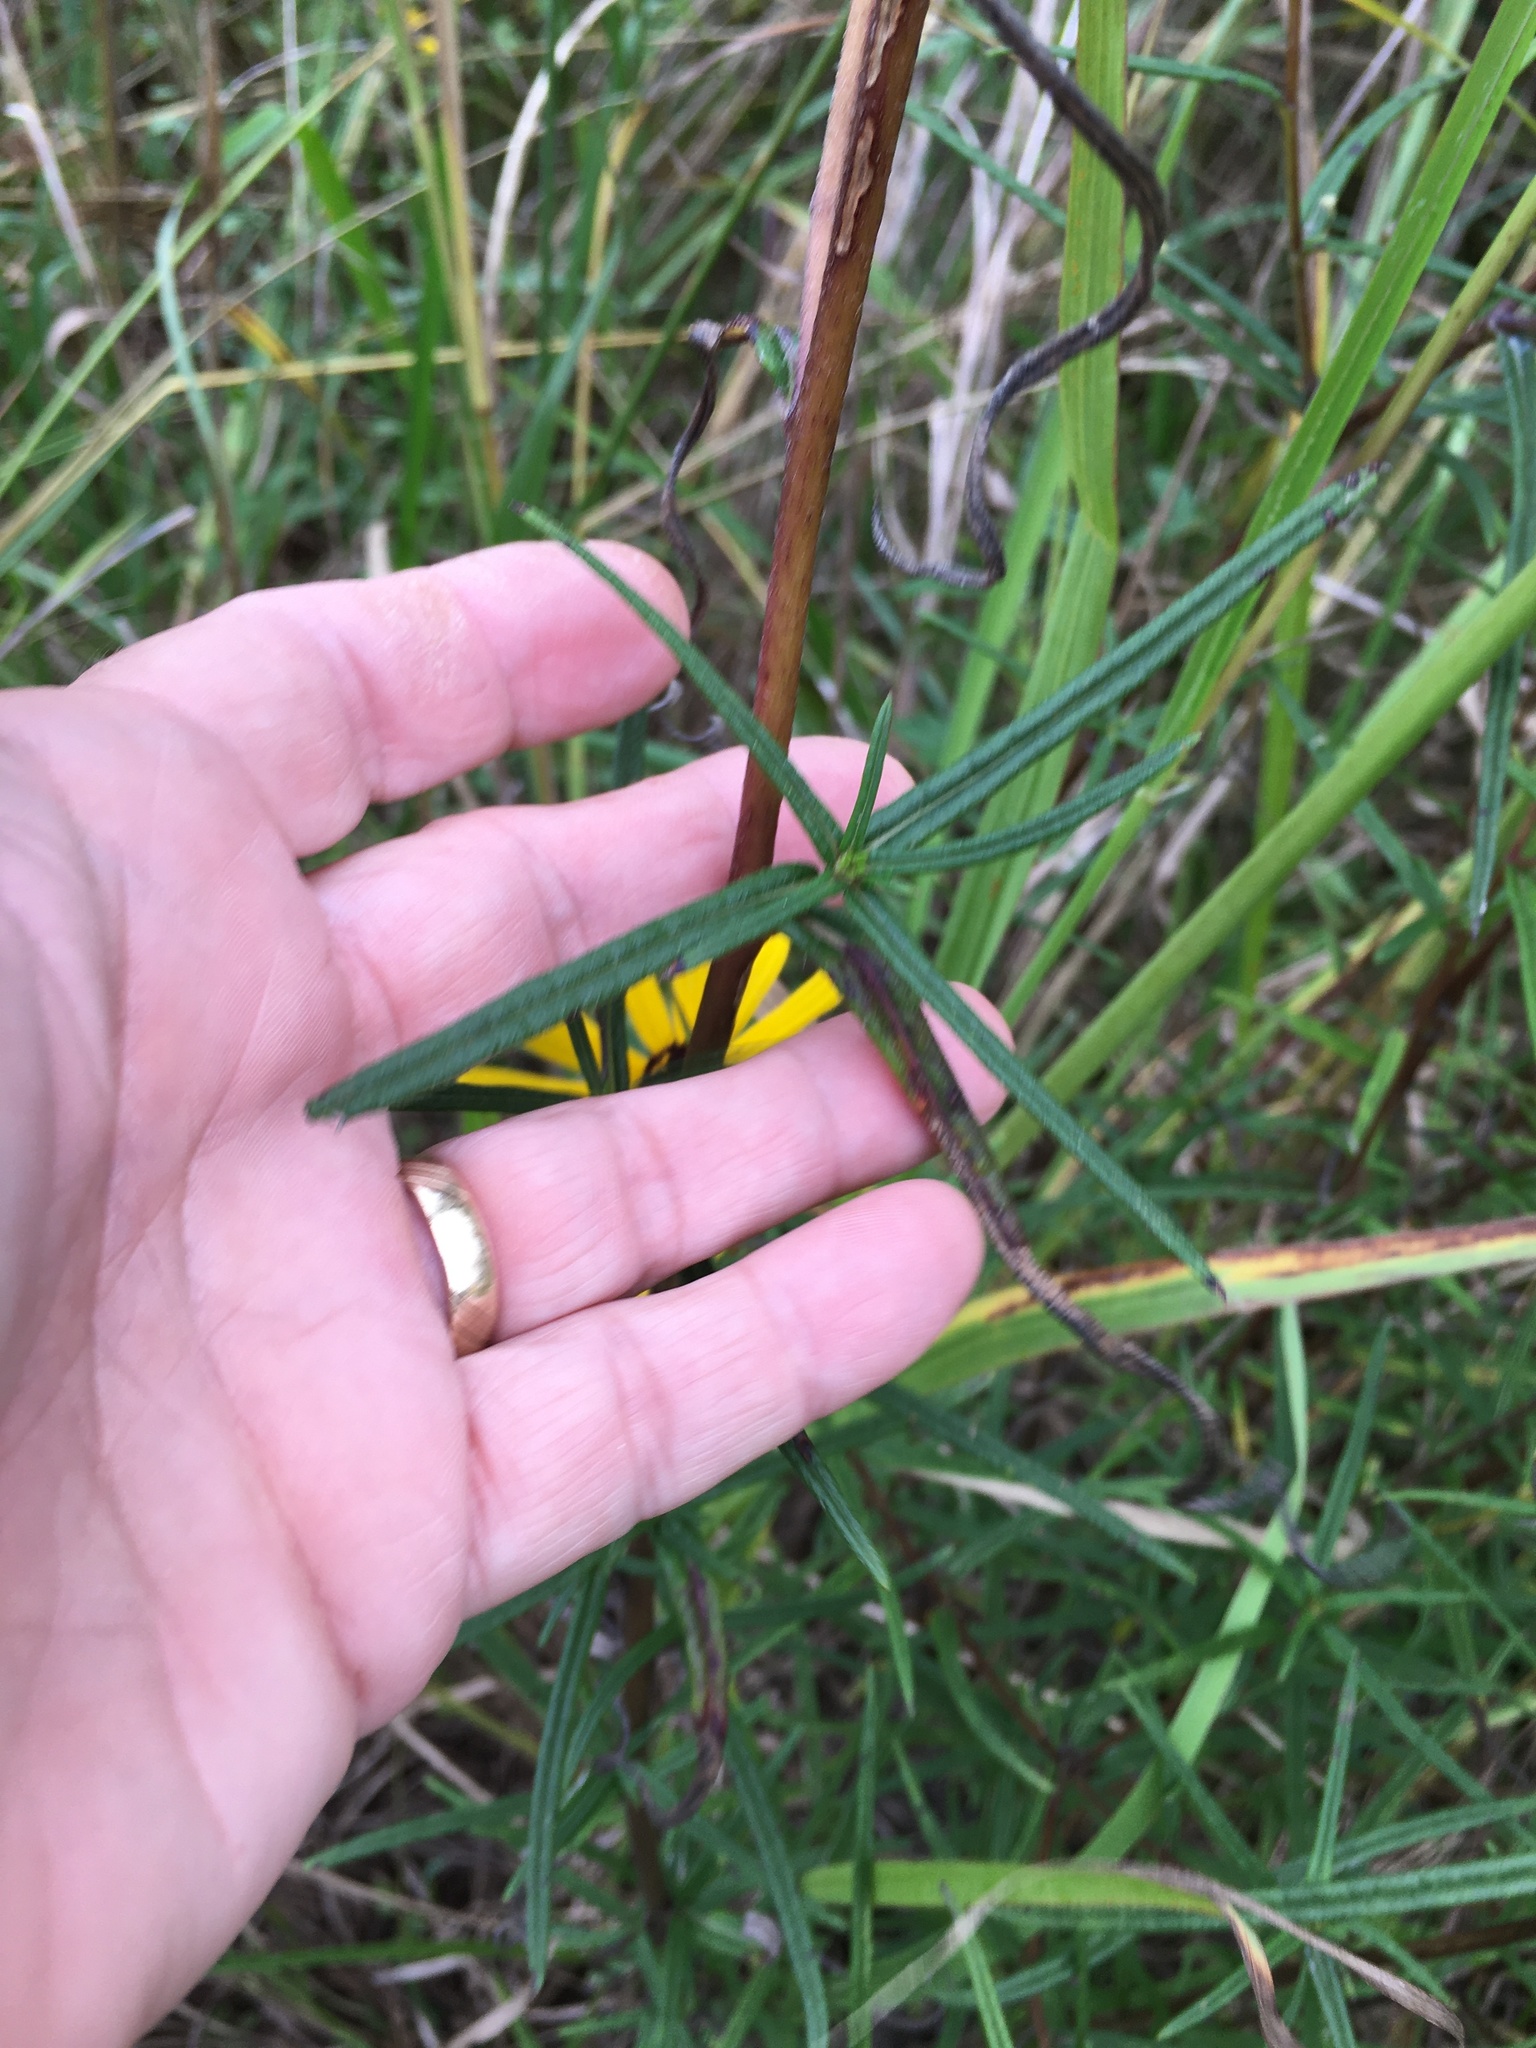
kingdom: Plantae
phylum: Tracheophyta
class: Magnoliopsida
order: Asterales
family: Asteraceae
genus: Helianthus
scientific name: Helianthus angustifolius
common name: Swamp sunflower
